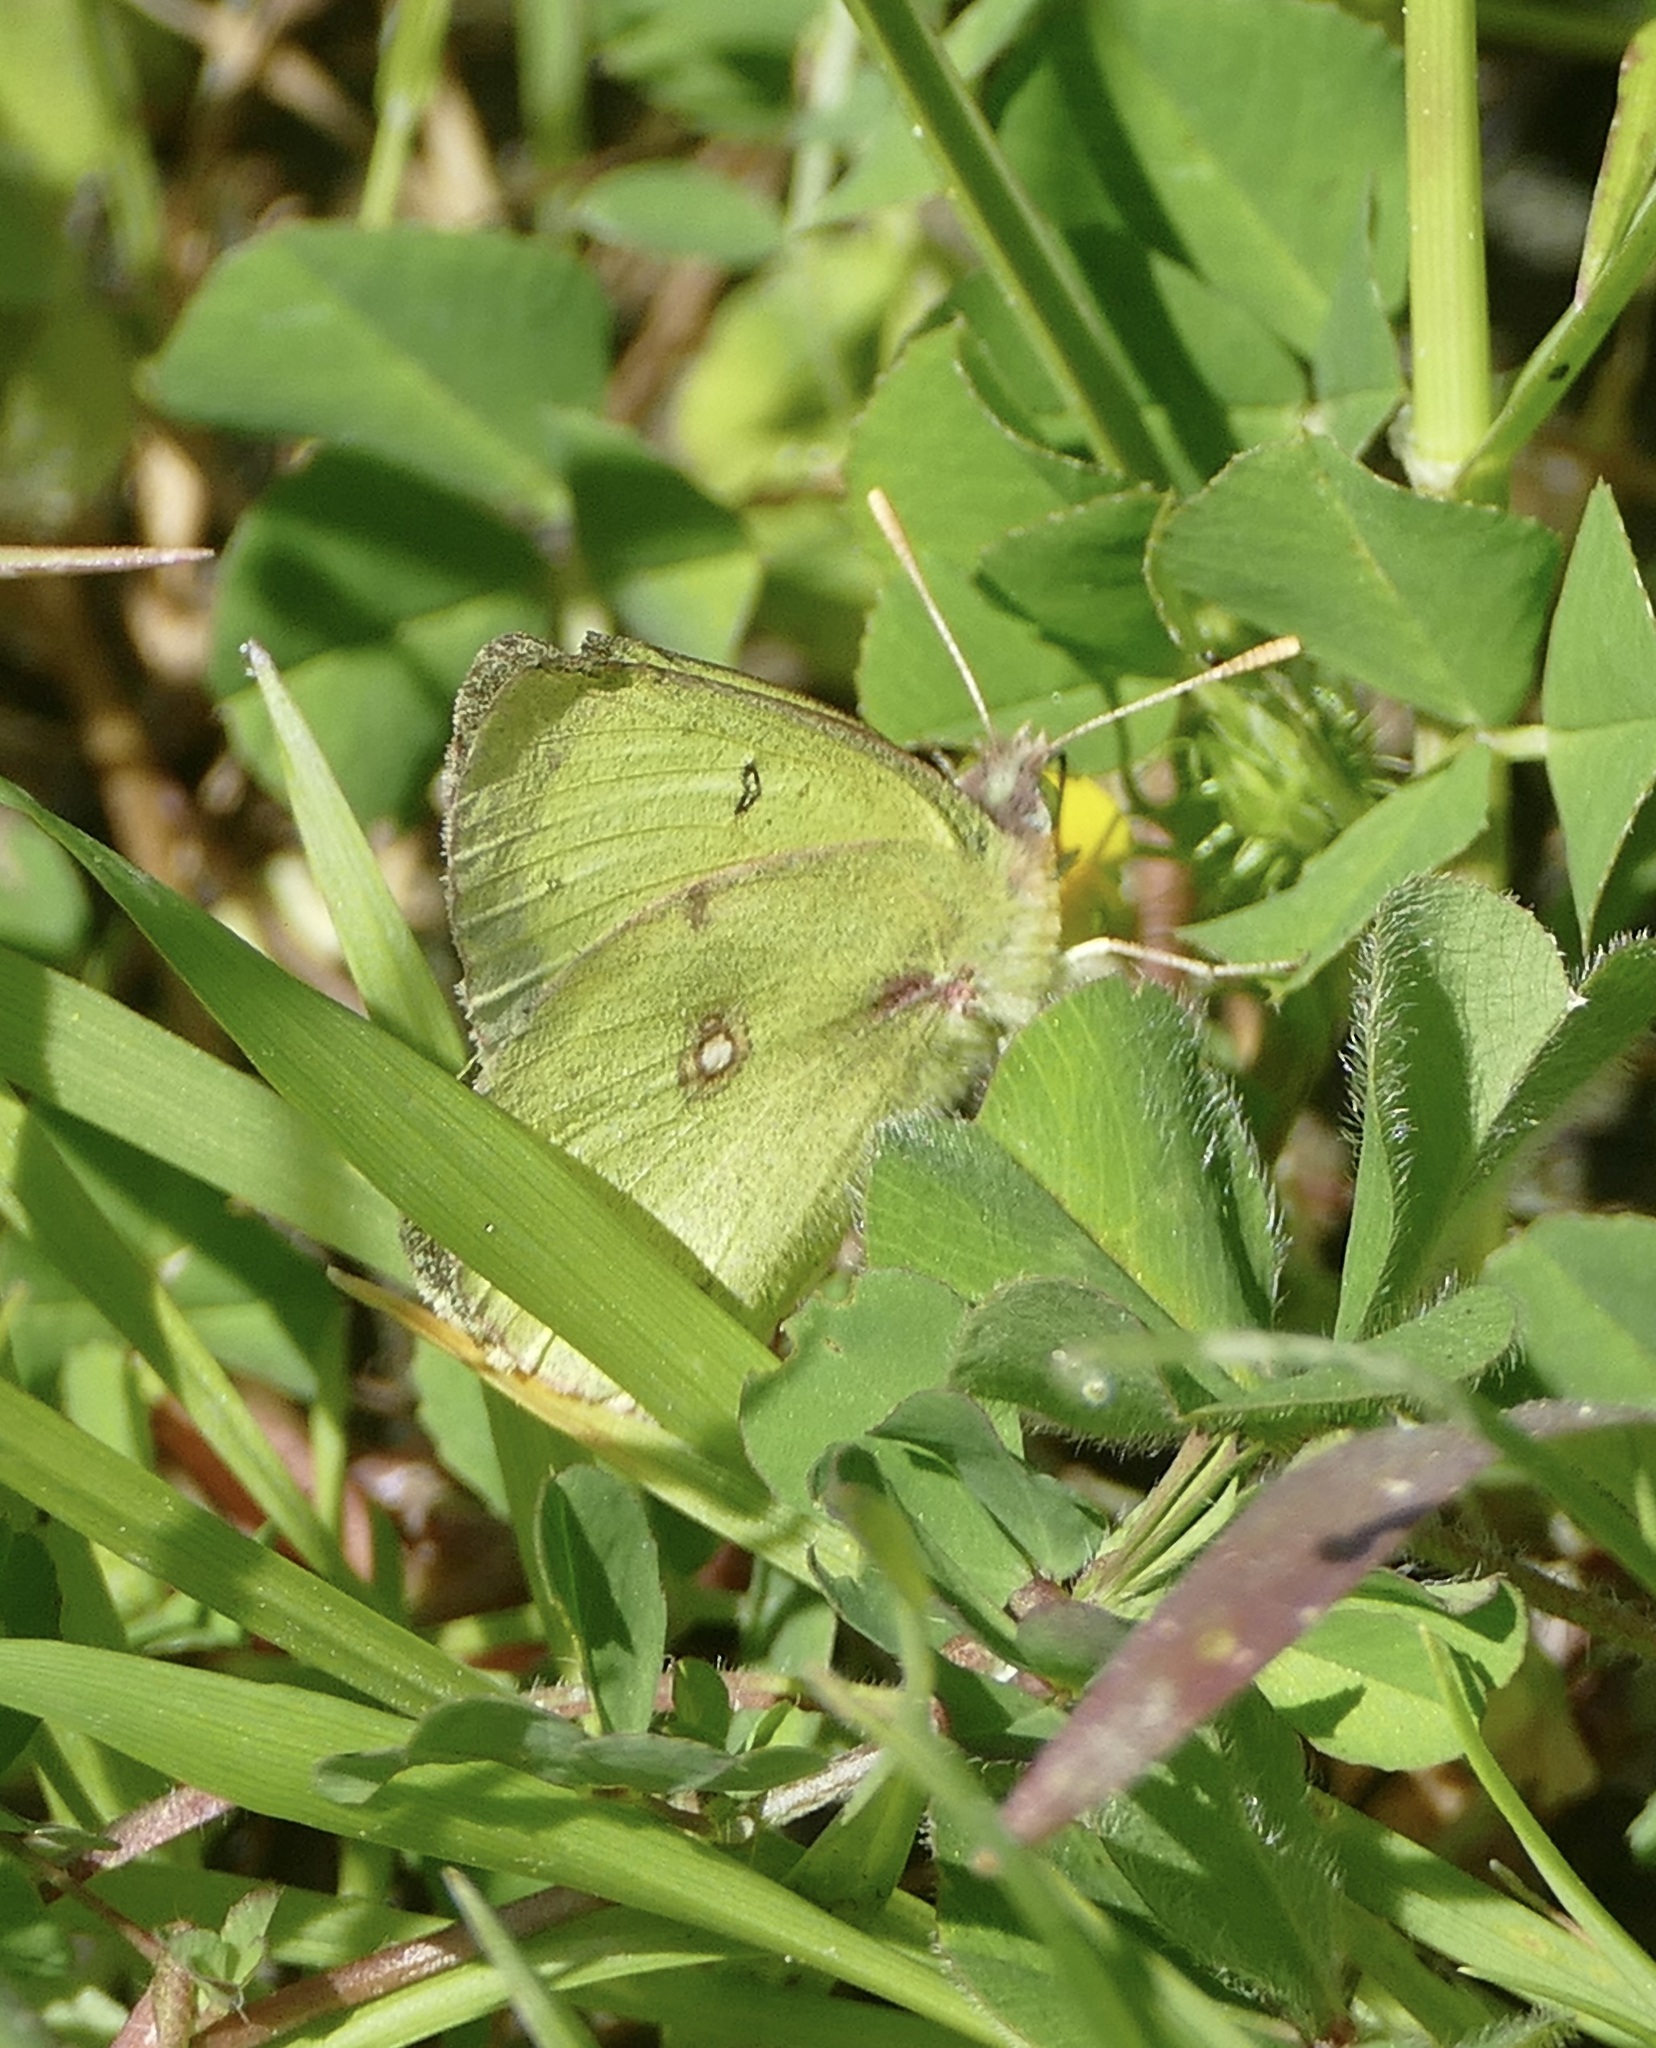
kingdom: Animalia
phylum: Arthropoda
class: Insecta
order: Lepidoptera
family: Pieridae
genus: Colias
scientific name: Colias eurytheme
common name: Alfalfa butterfly
